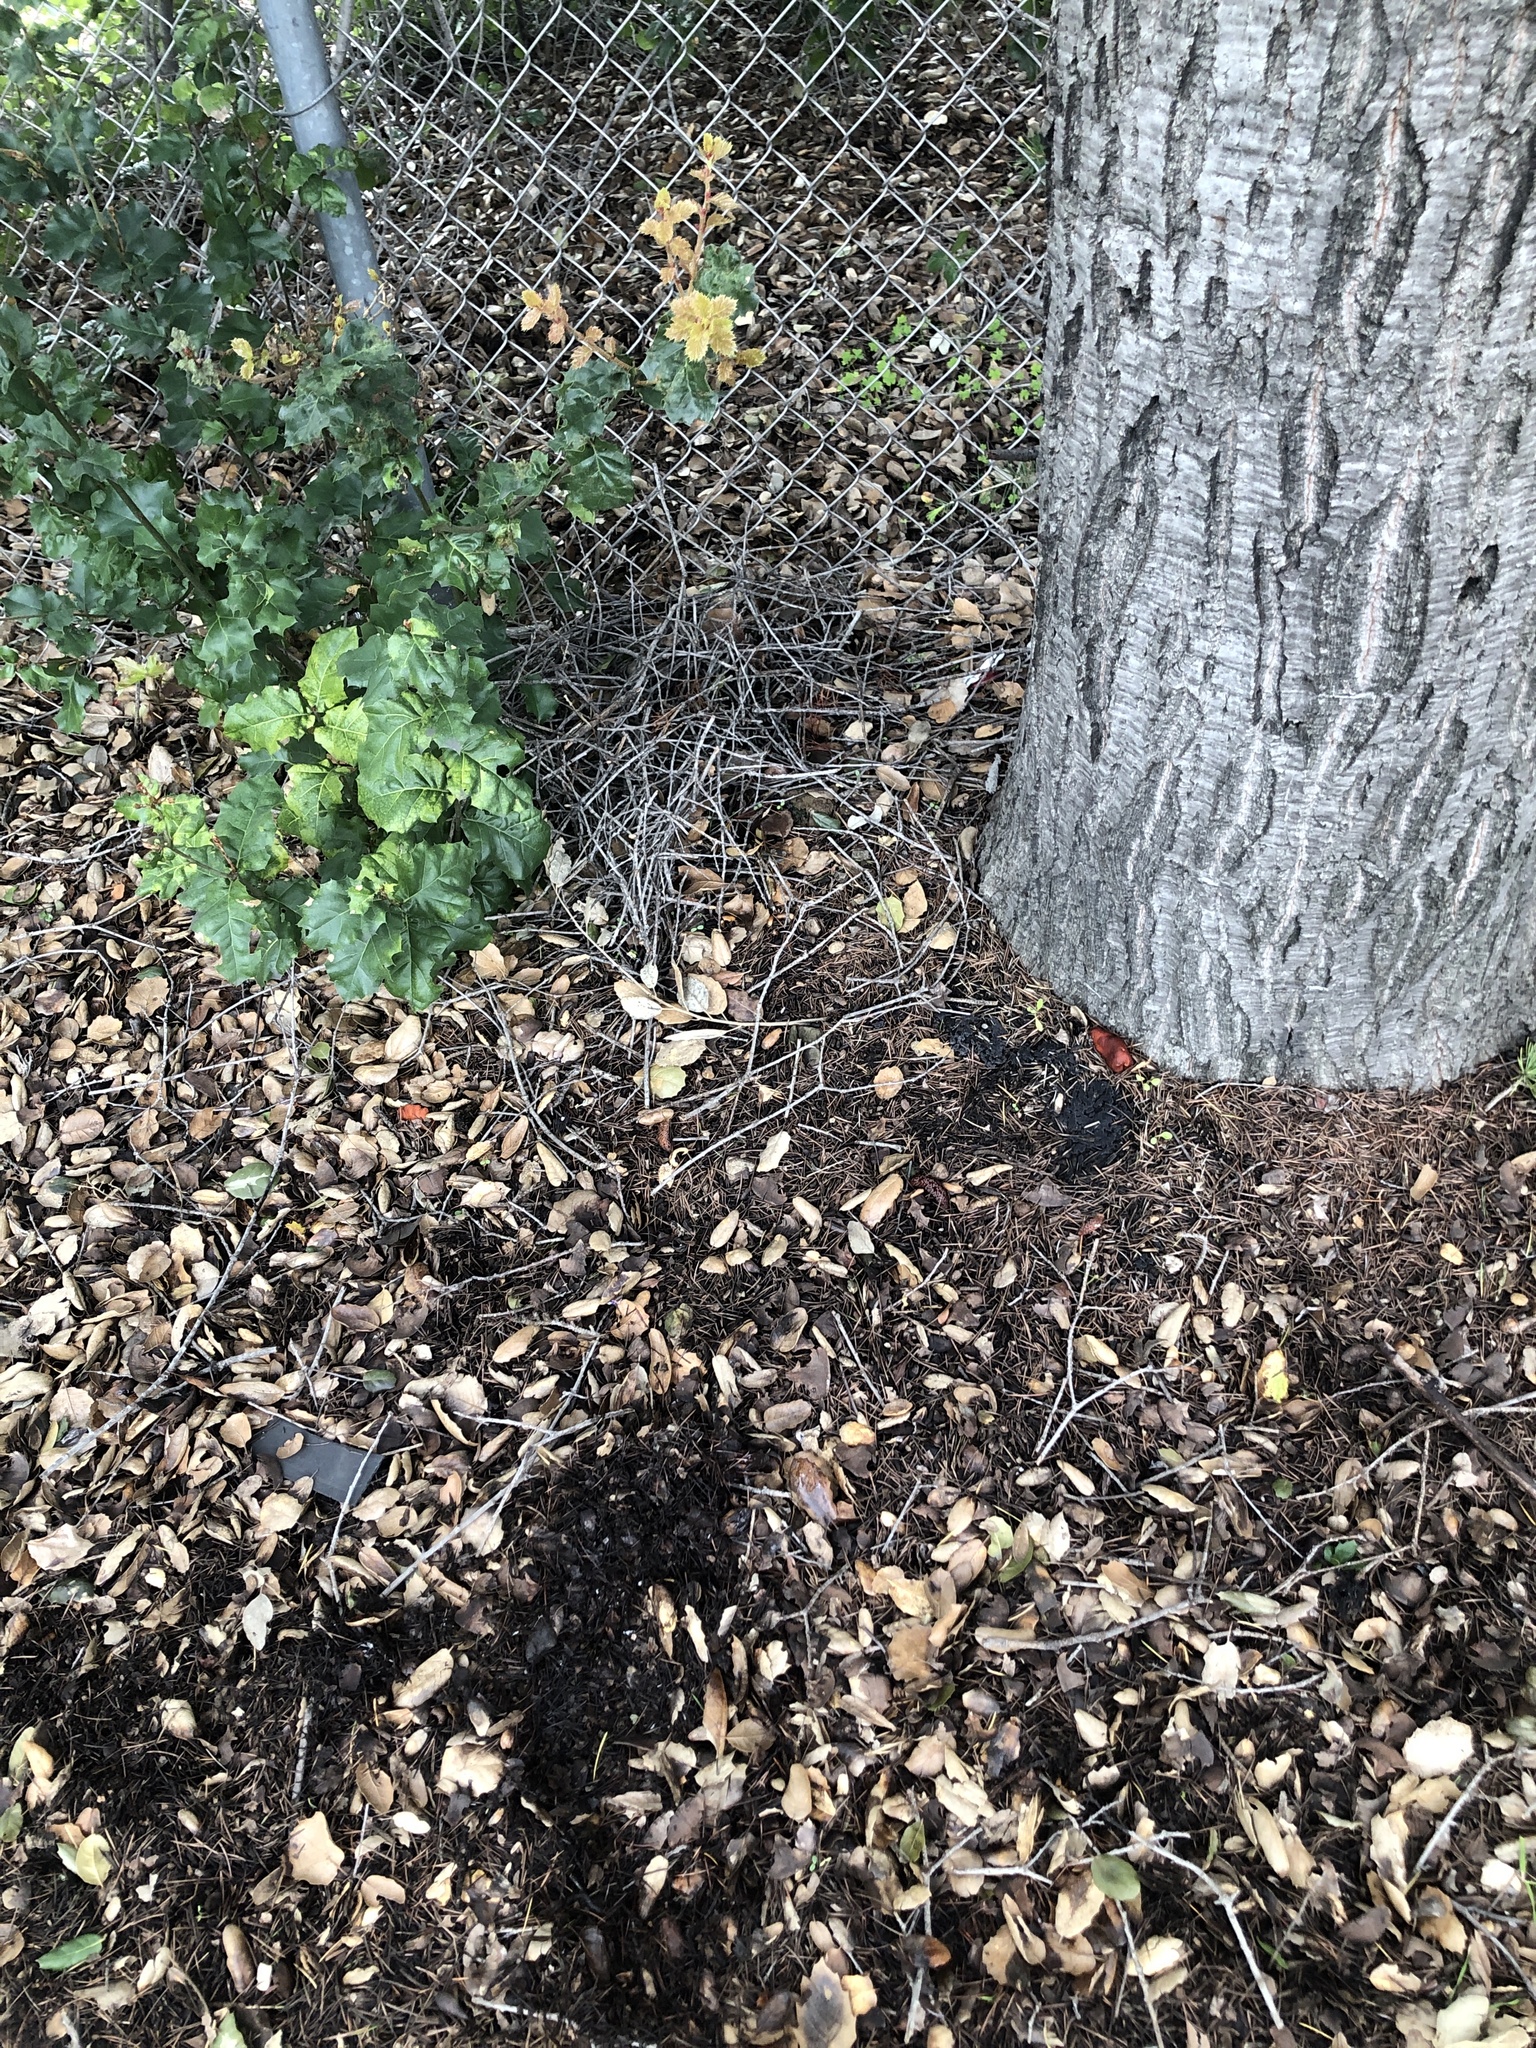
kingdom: Fungi
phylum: Basidiomycota
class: Agaricomycetes
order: Russulales
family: Russulaceae
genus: Lactarius
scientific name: Lactarius rufulus
